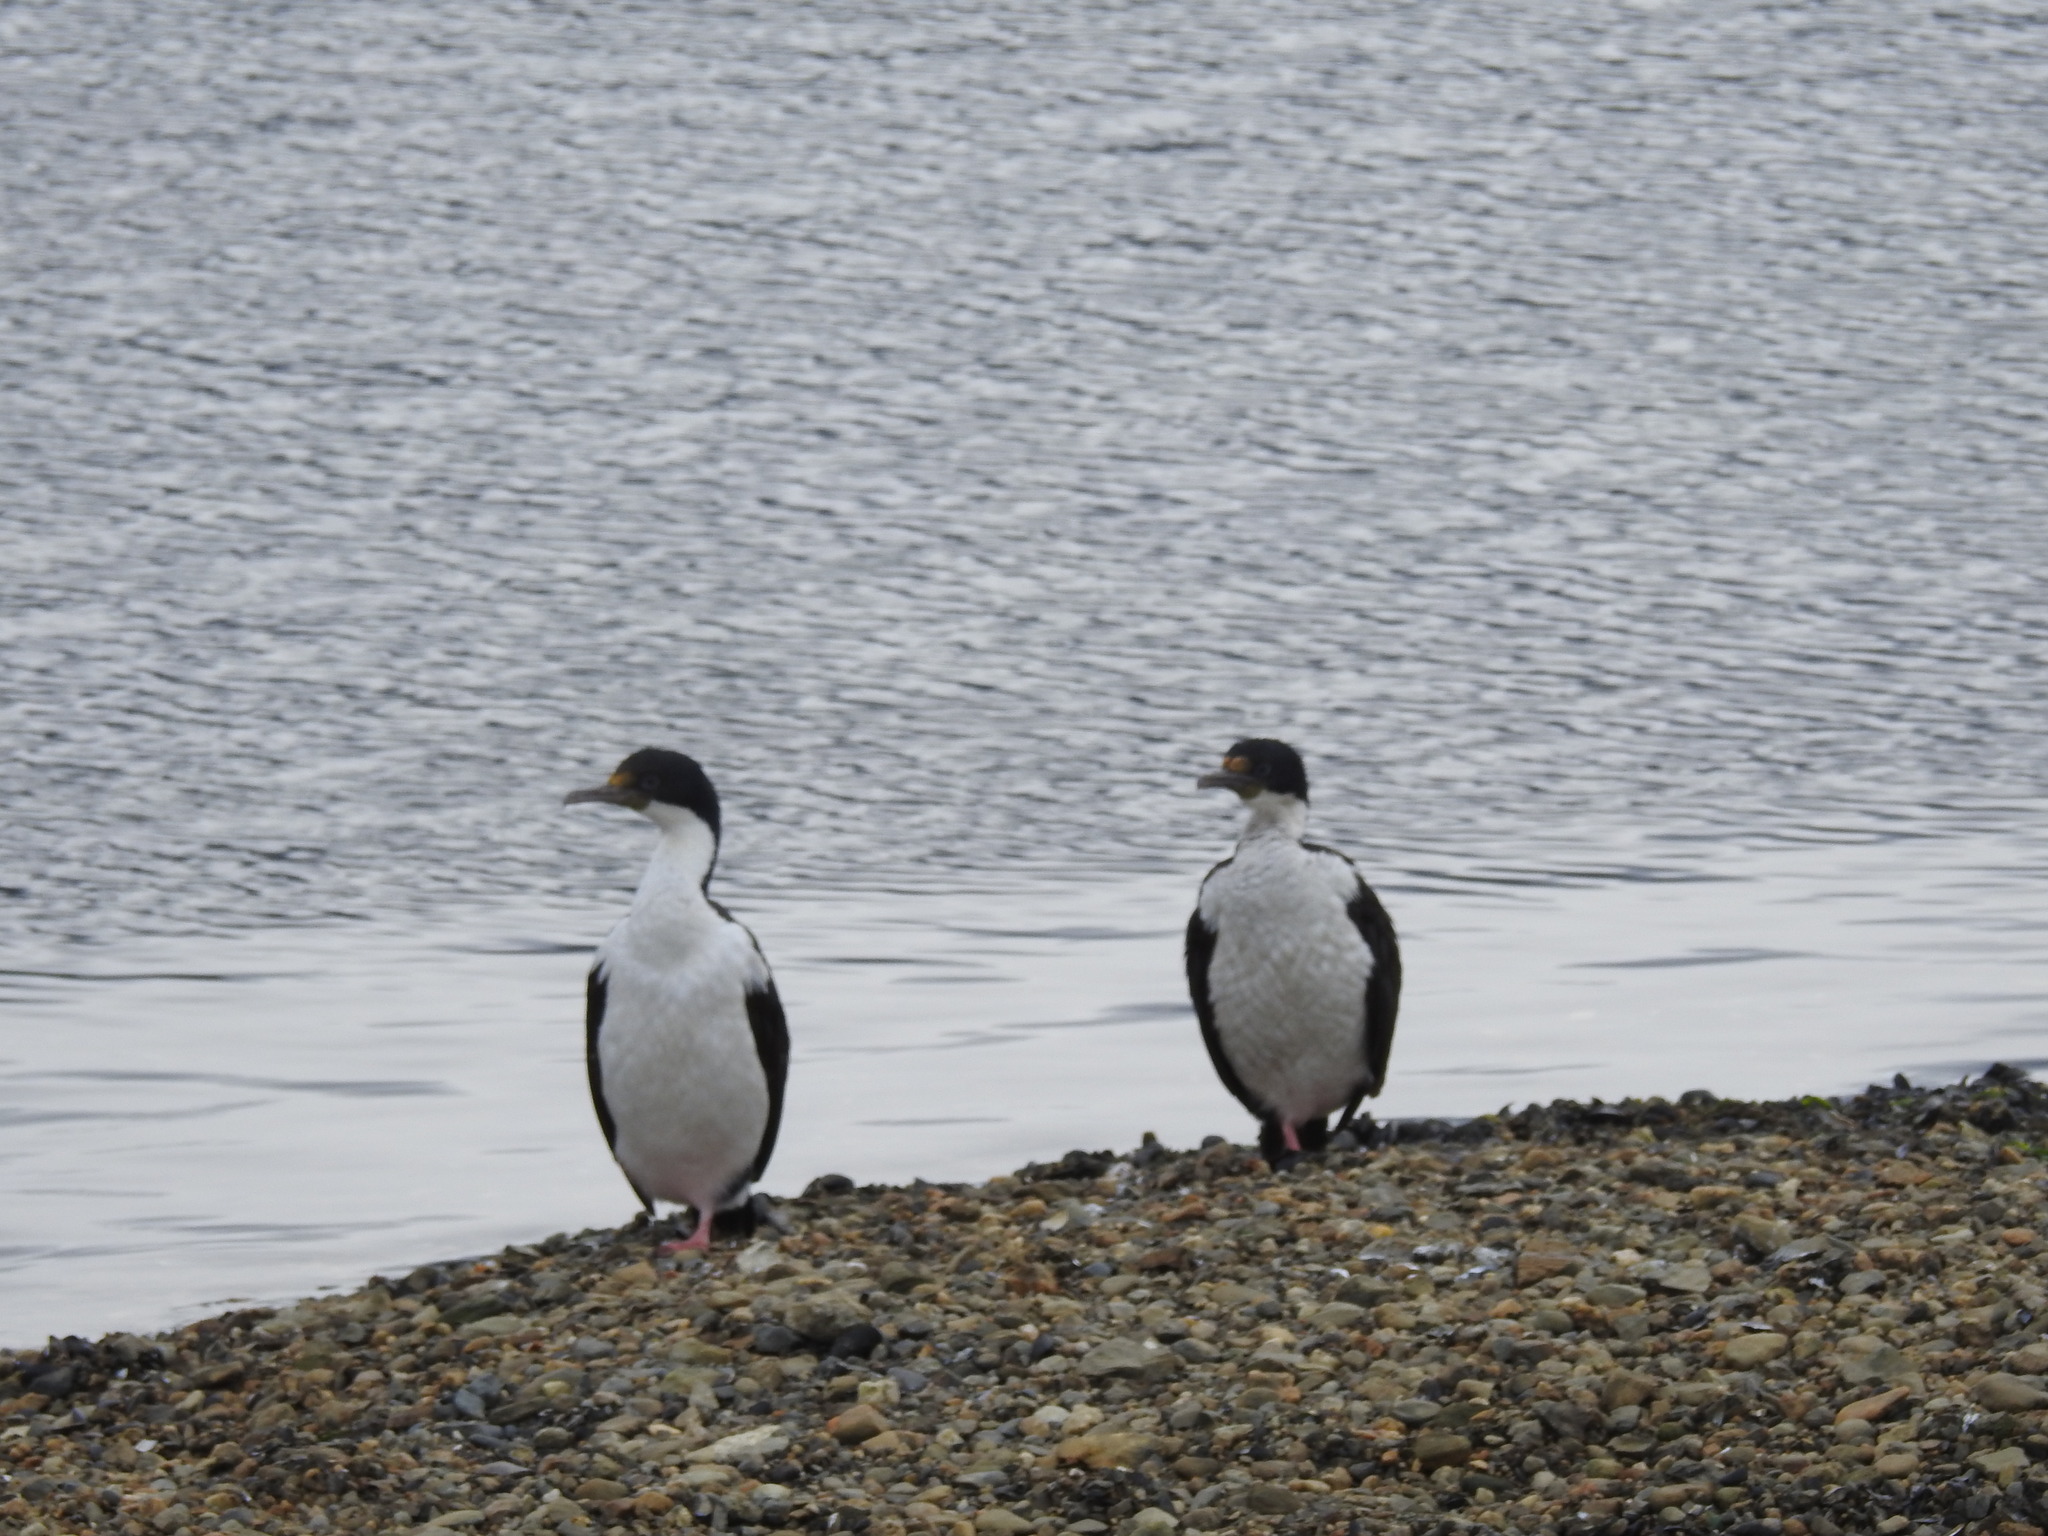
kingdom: Animalia
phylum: Chordata
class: Aves
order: Suliformes
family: Phalacrocoracidae
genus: Leucocarbo
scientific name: Leucocarbo atriceps
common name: Imperial shag
